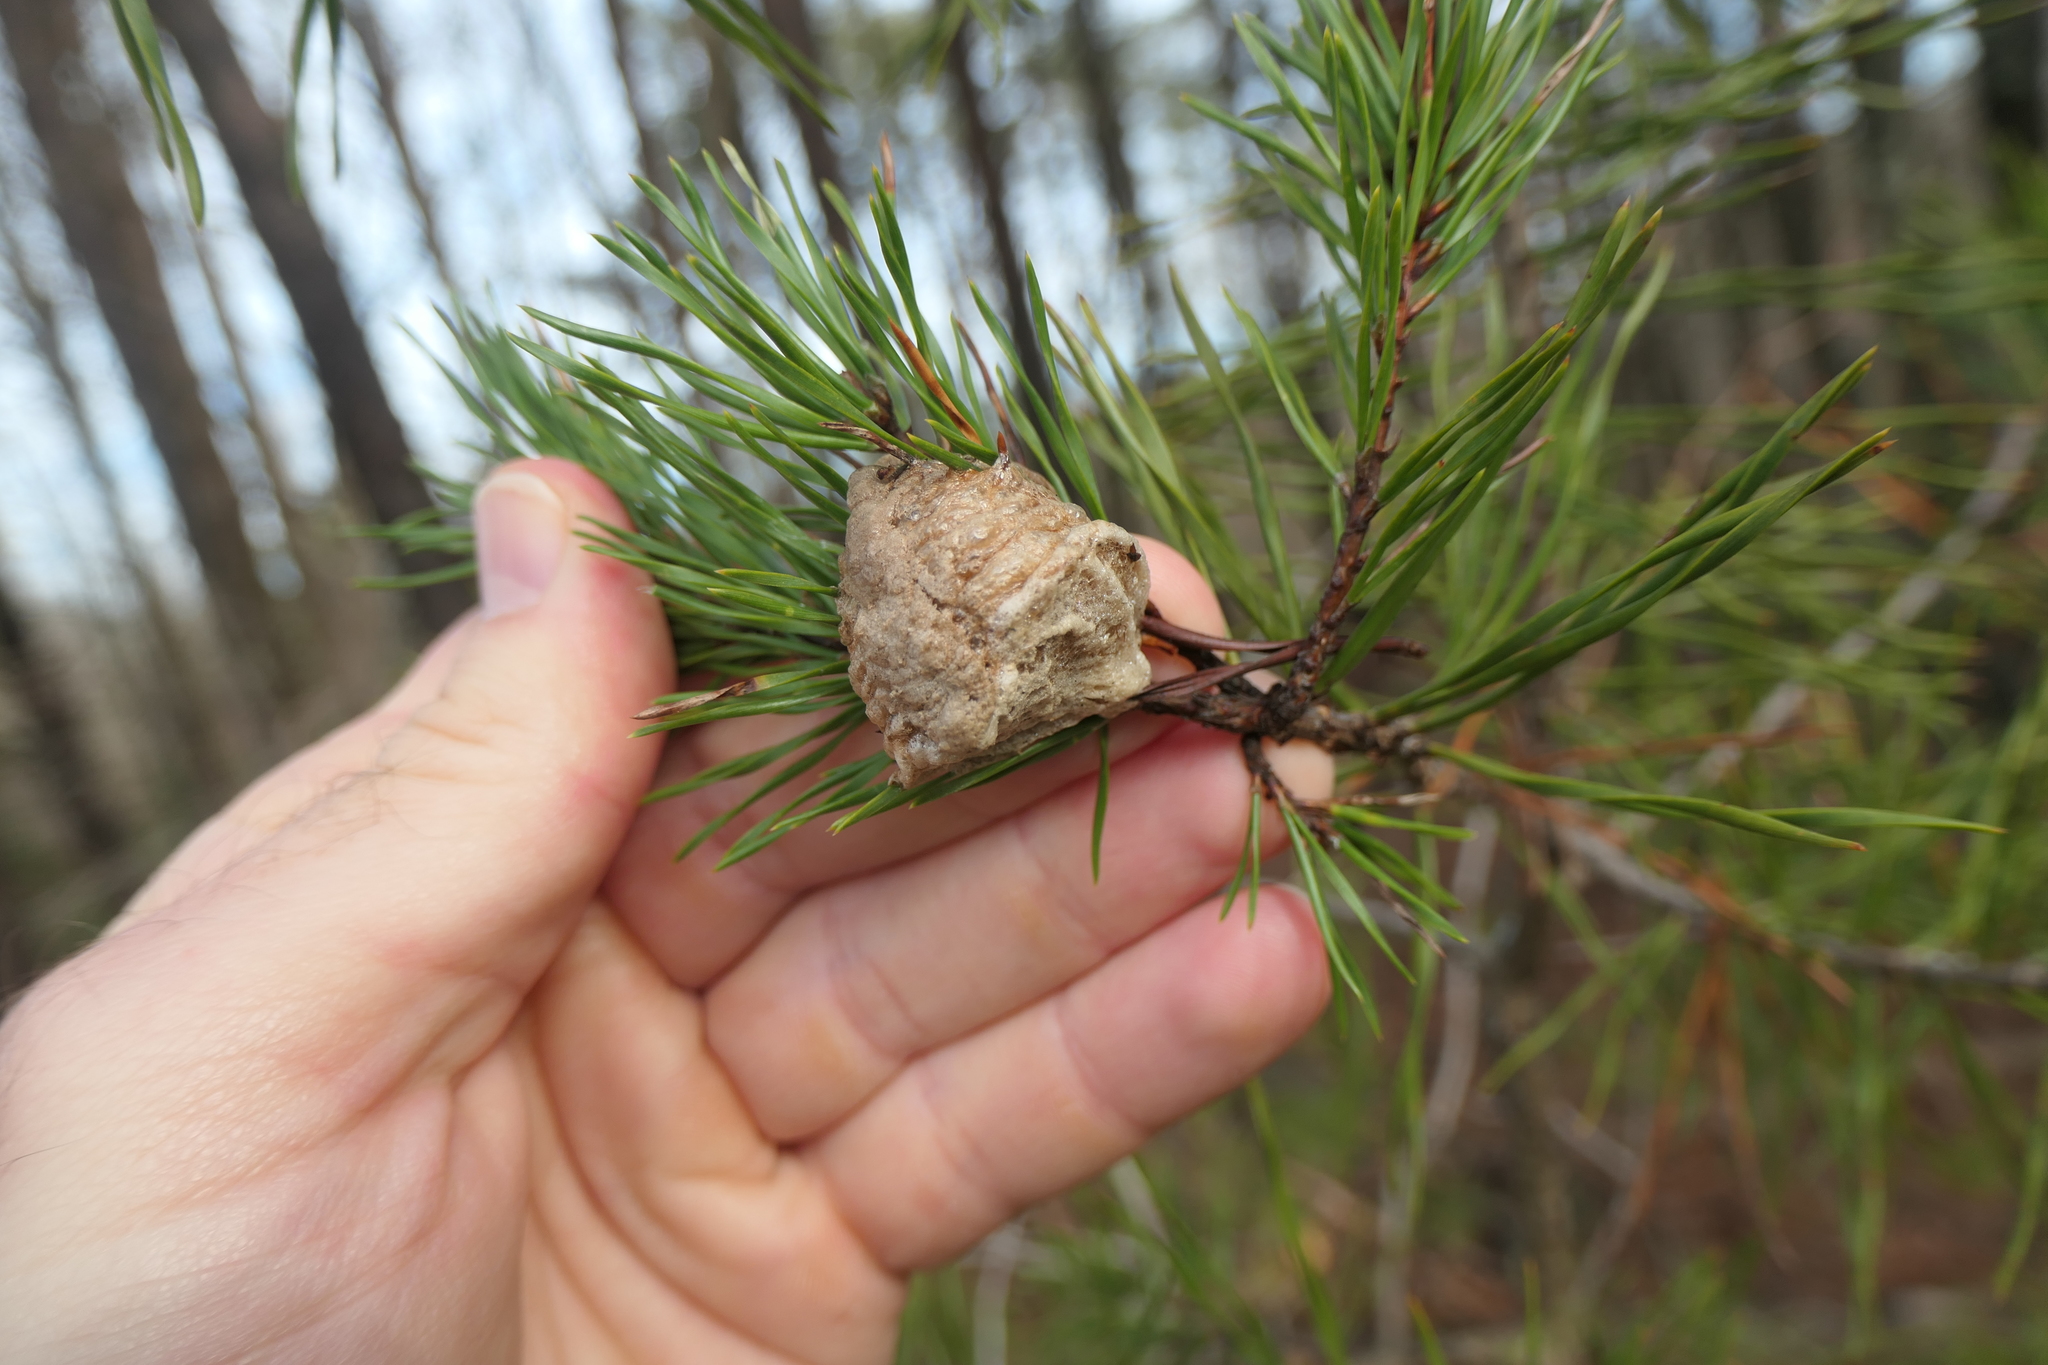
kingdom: Animalia
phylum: Arthropoda
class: Insecta
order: Mantodea
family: Mantidae
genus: Tenodera
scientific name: Tenodera sinensis
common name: Chinese mantis
